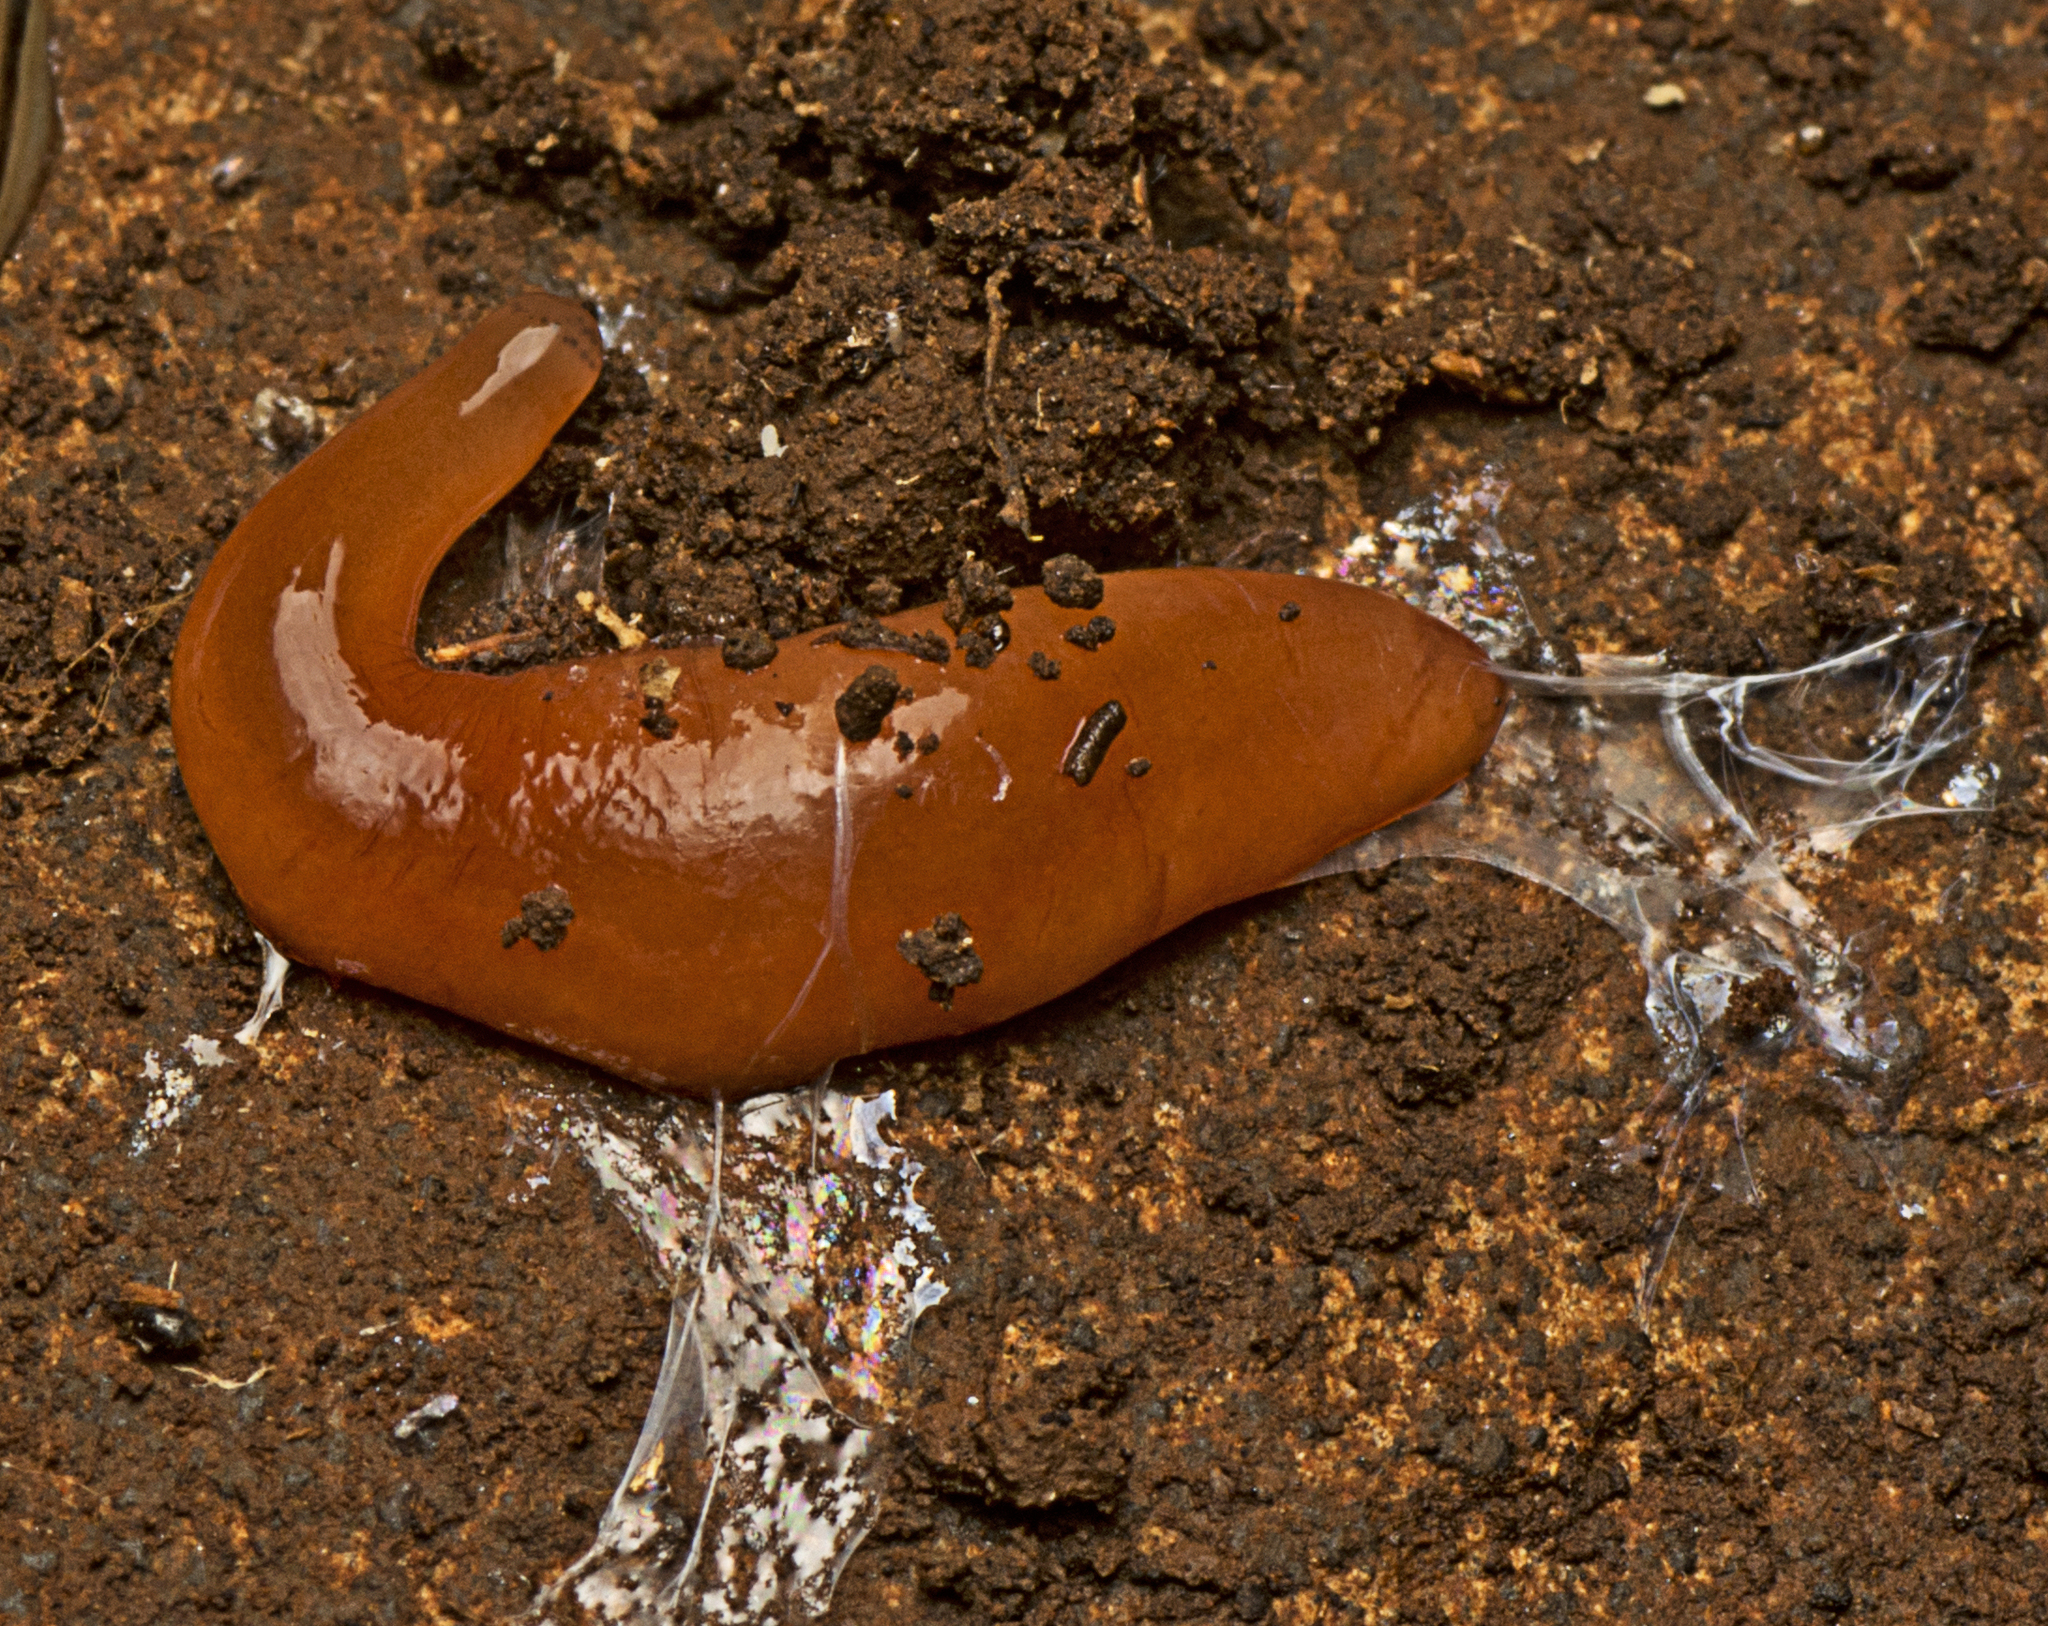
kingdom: Animalia
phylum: Nemertea
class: Hoplonemertea
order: Monostilifera
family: Acteonemertidae
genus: Argonemertes
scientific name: Argonemertes hillii
